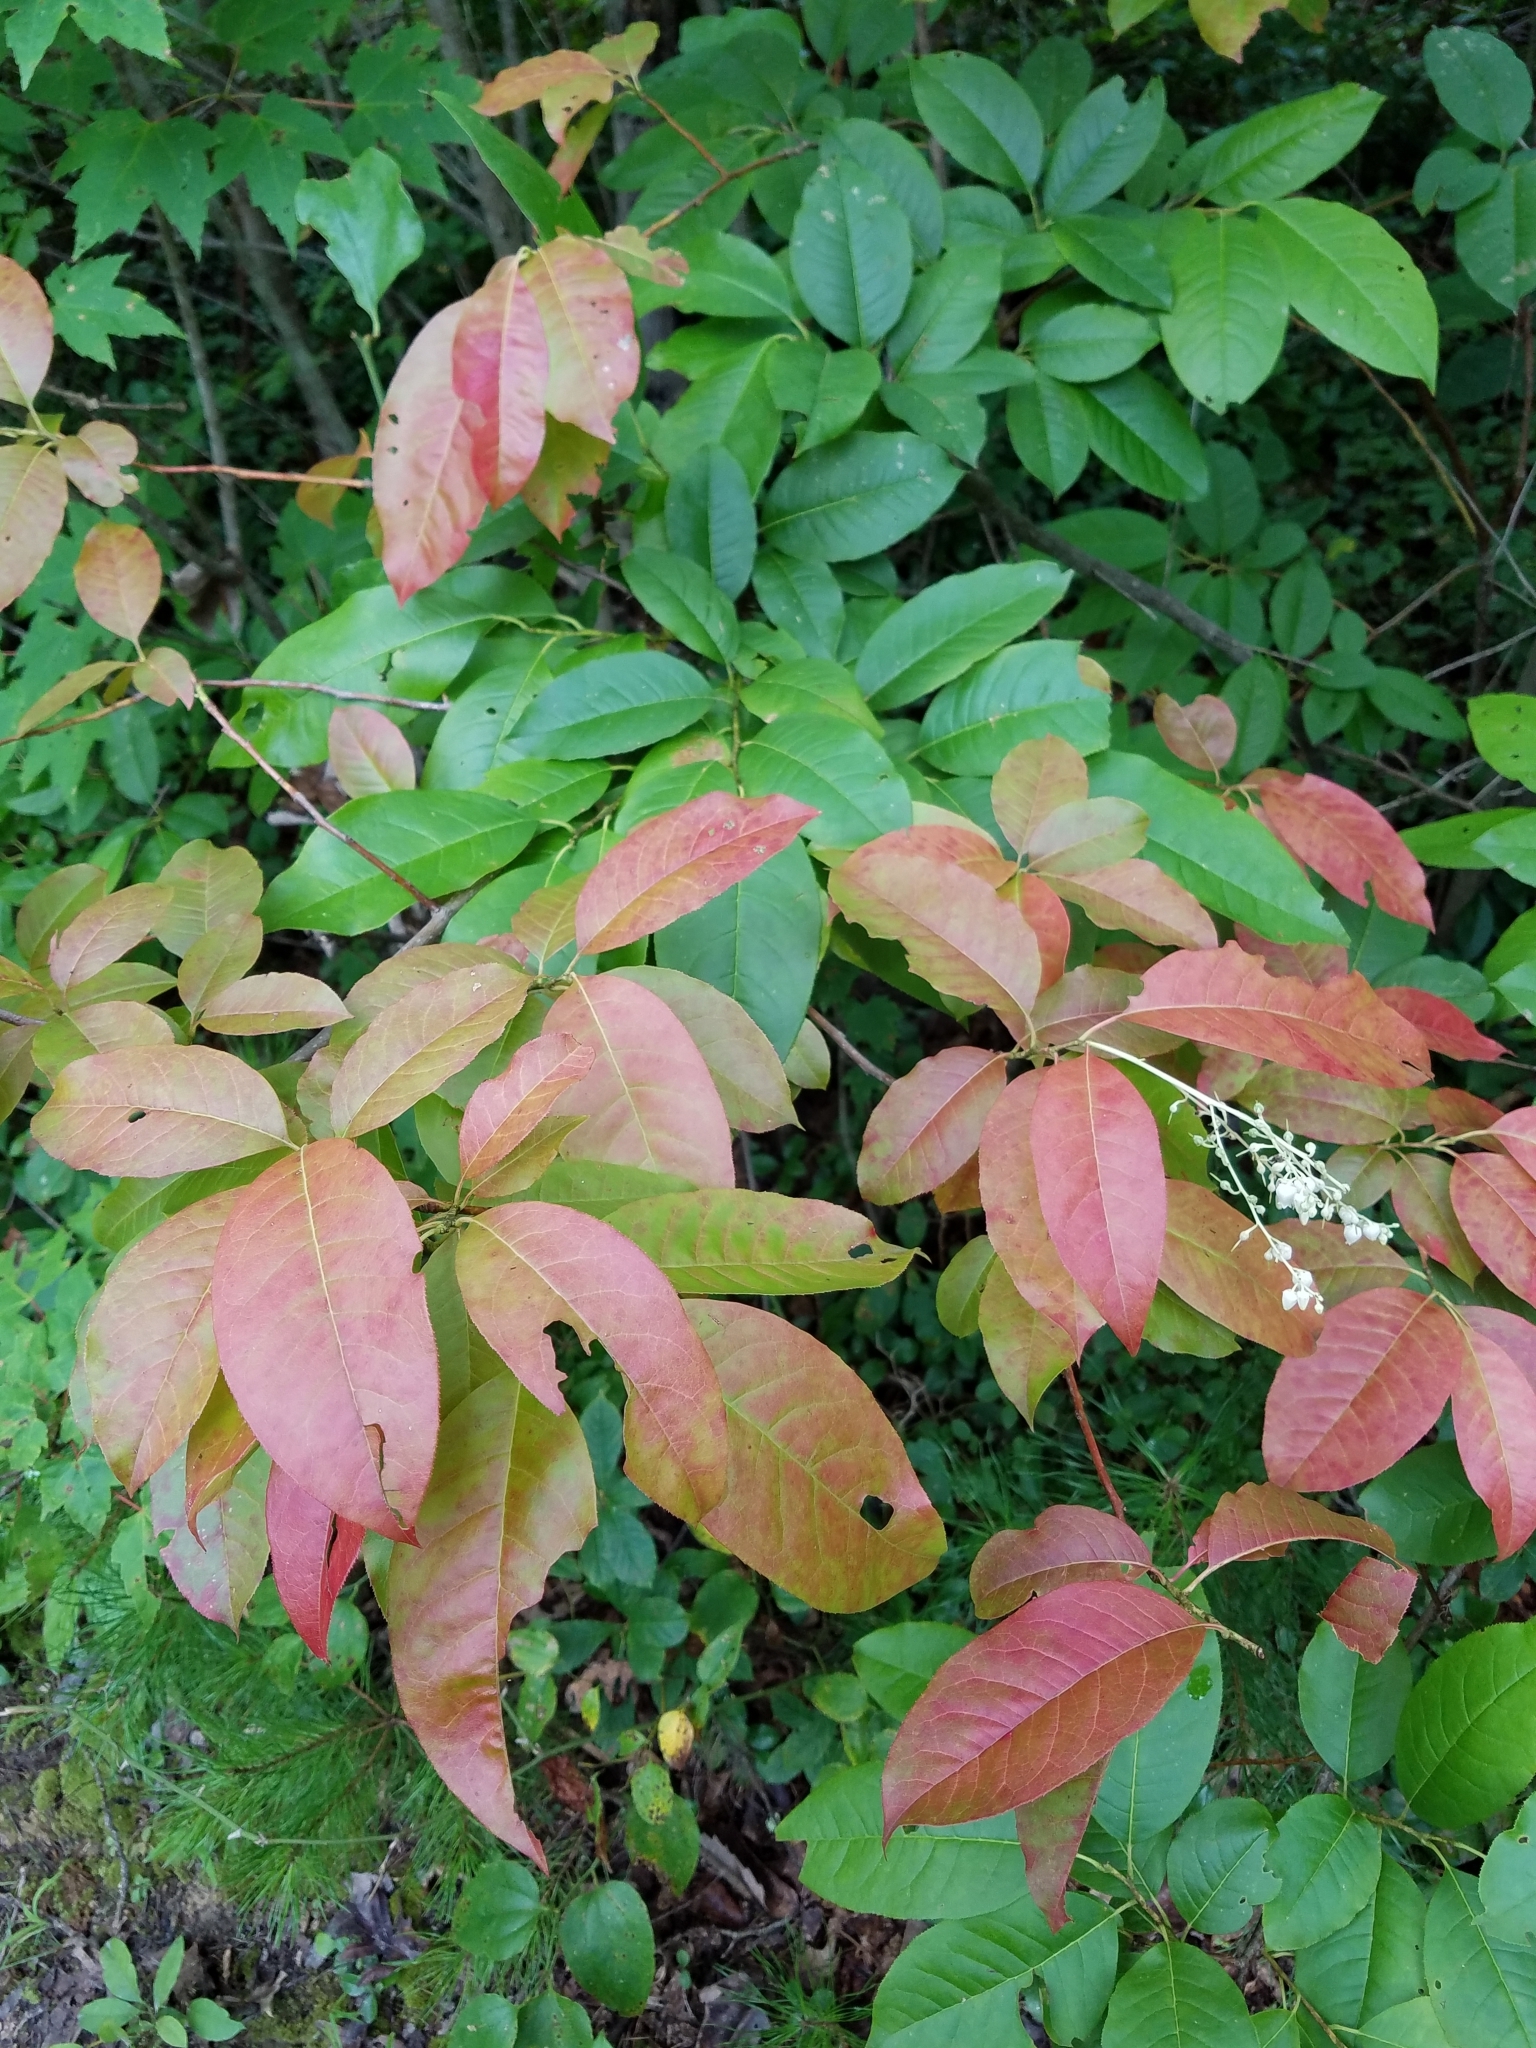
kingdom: Plantae
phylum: Tracheophyta
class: Magnoliopsida
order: Ericales
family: Ericaceae
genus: Oxydendrum
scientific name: Oxydendrum arboreum
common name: Sourwood
